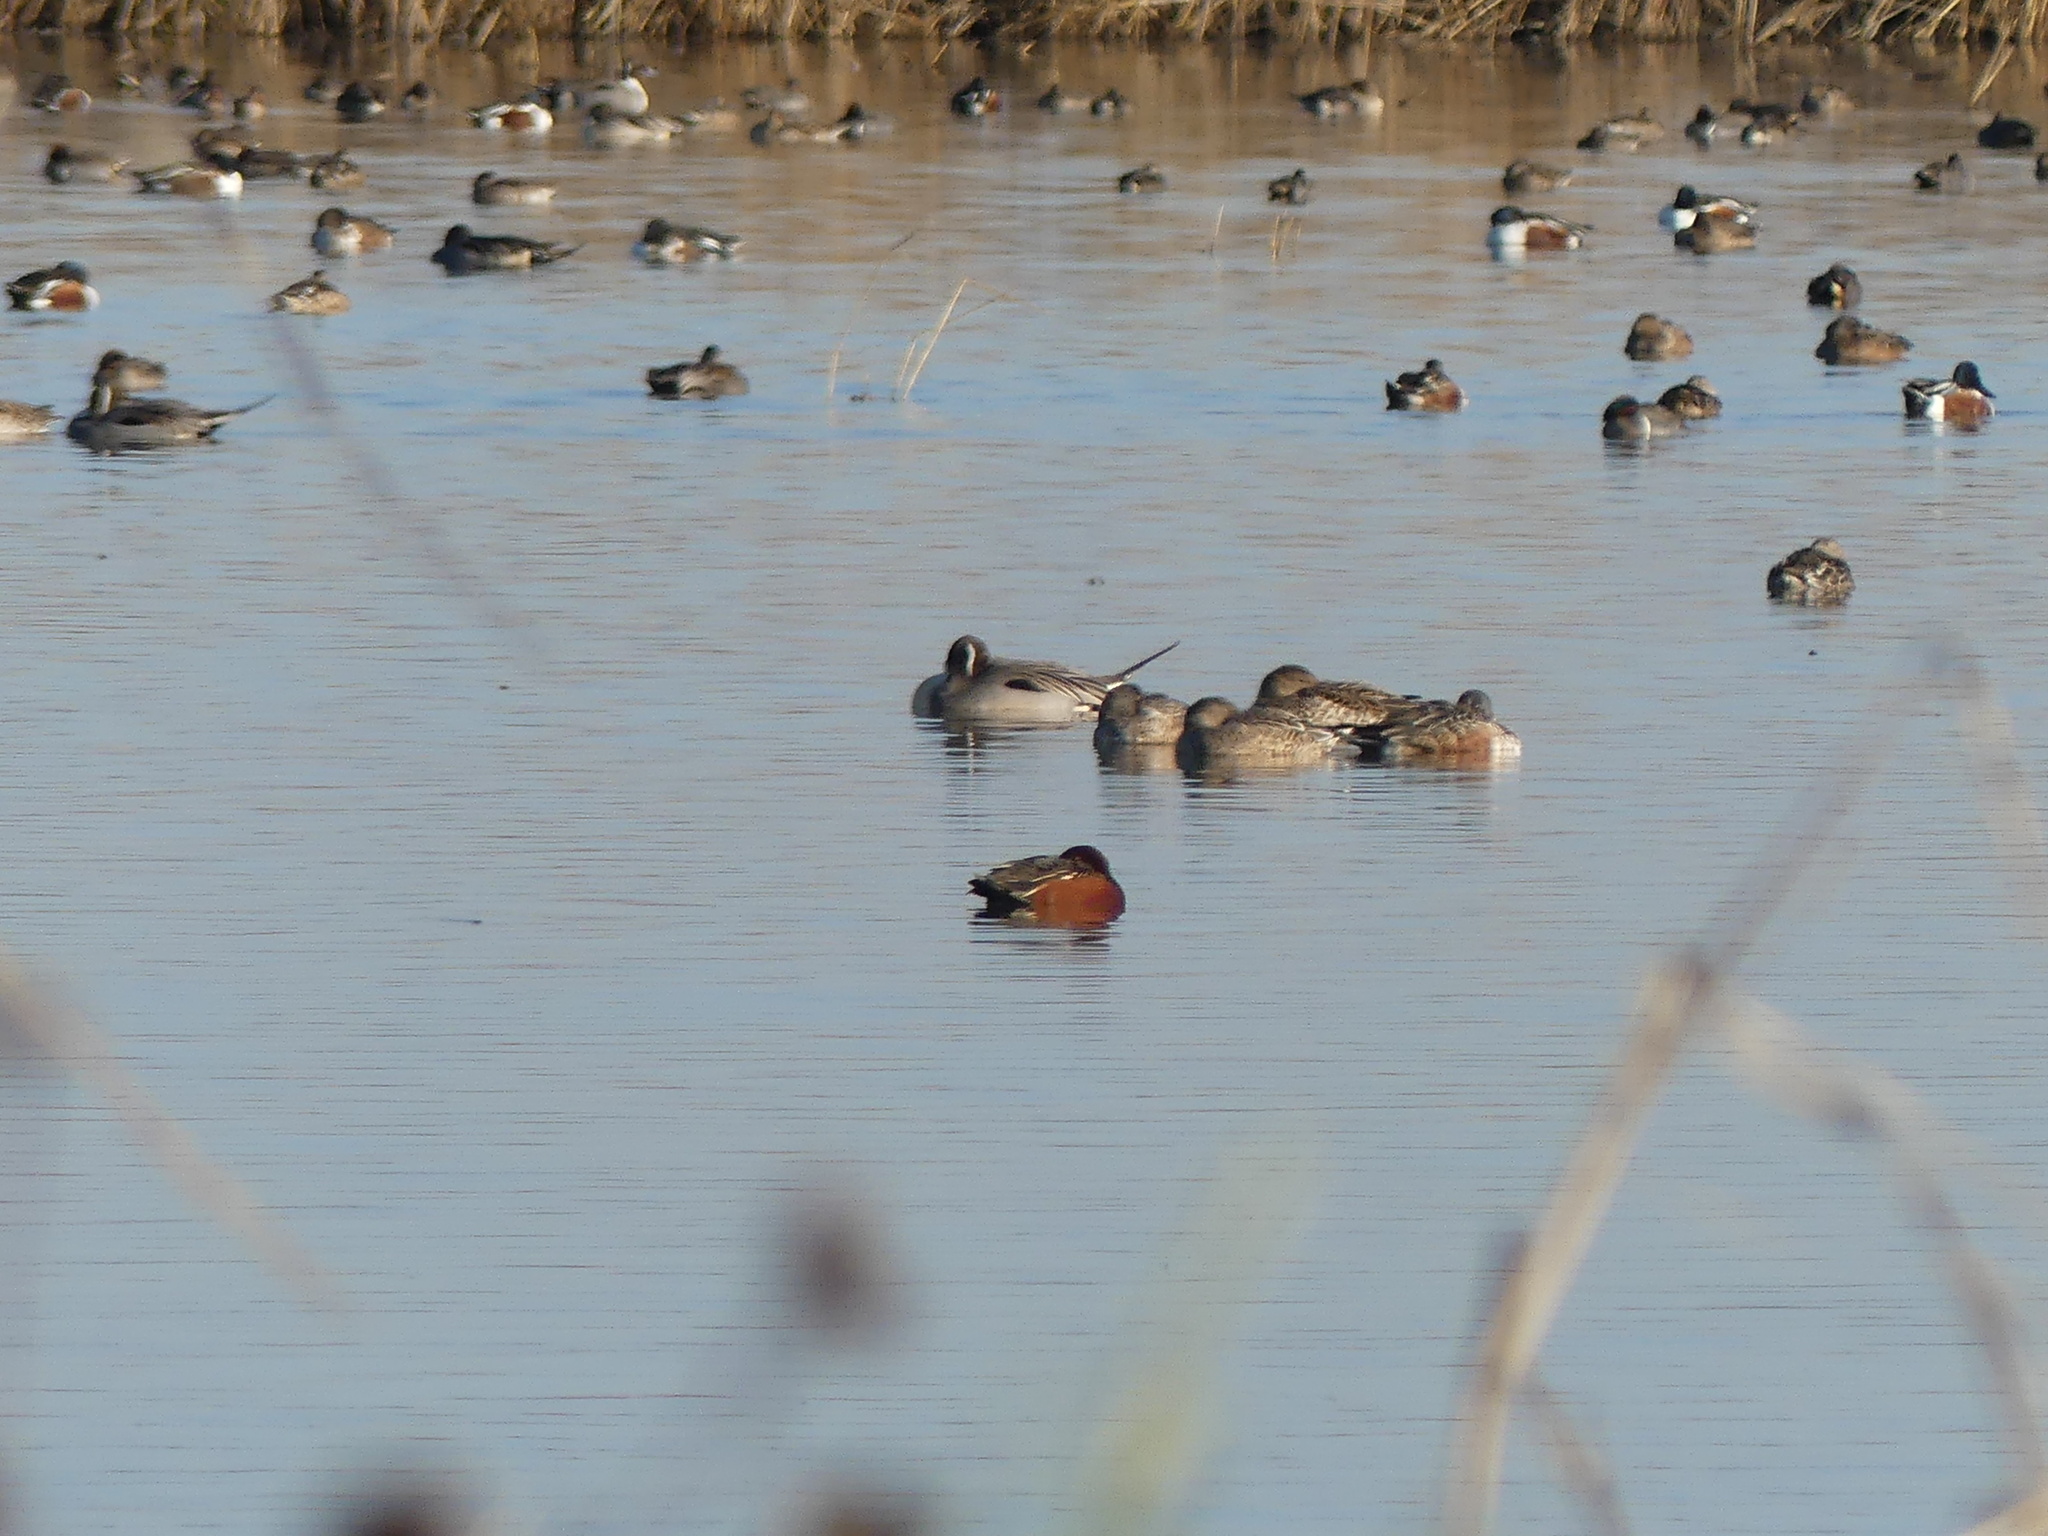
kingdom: Animalia
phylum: Chordata
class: Aves
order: Anseriformes
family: Anatidae
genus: Spatula
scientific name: Spatula cyanoptera
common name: Cinnamon teal
